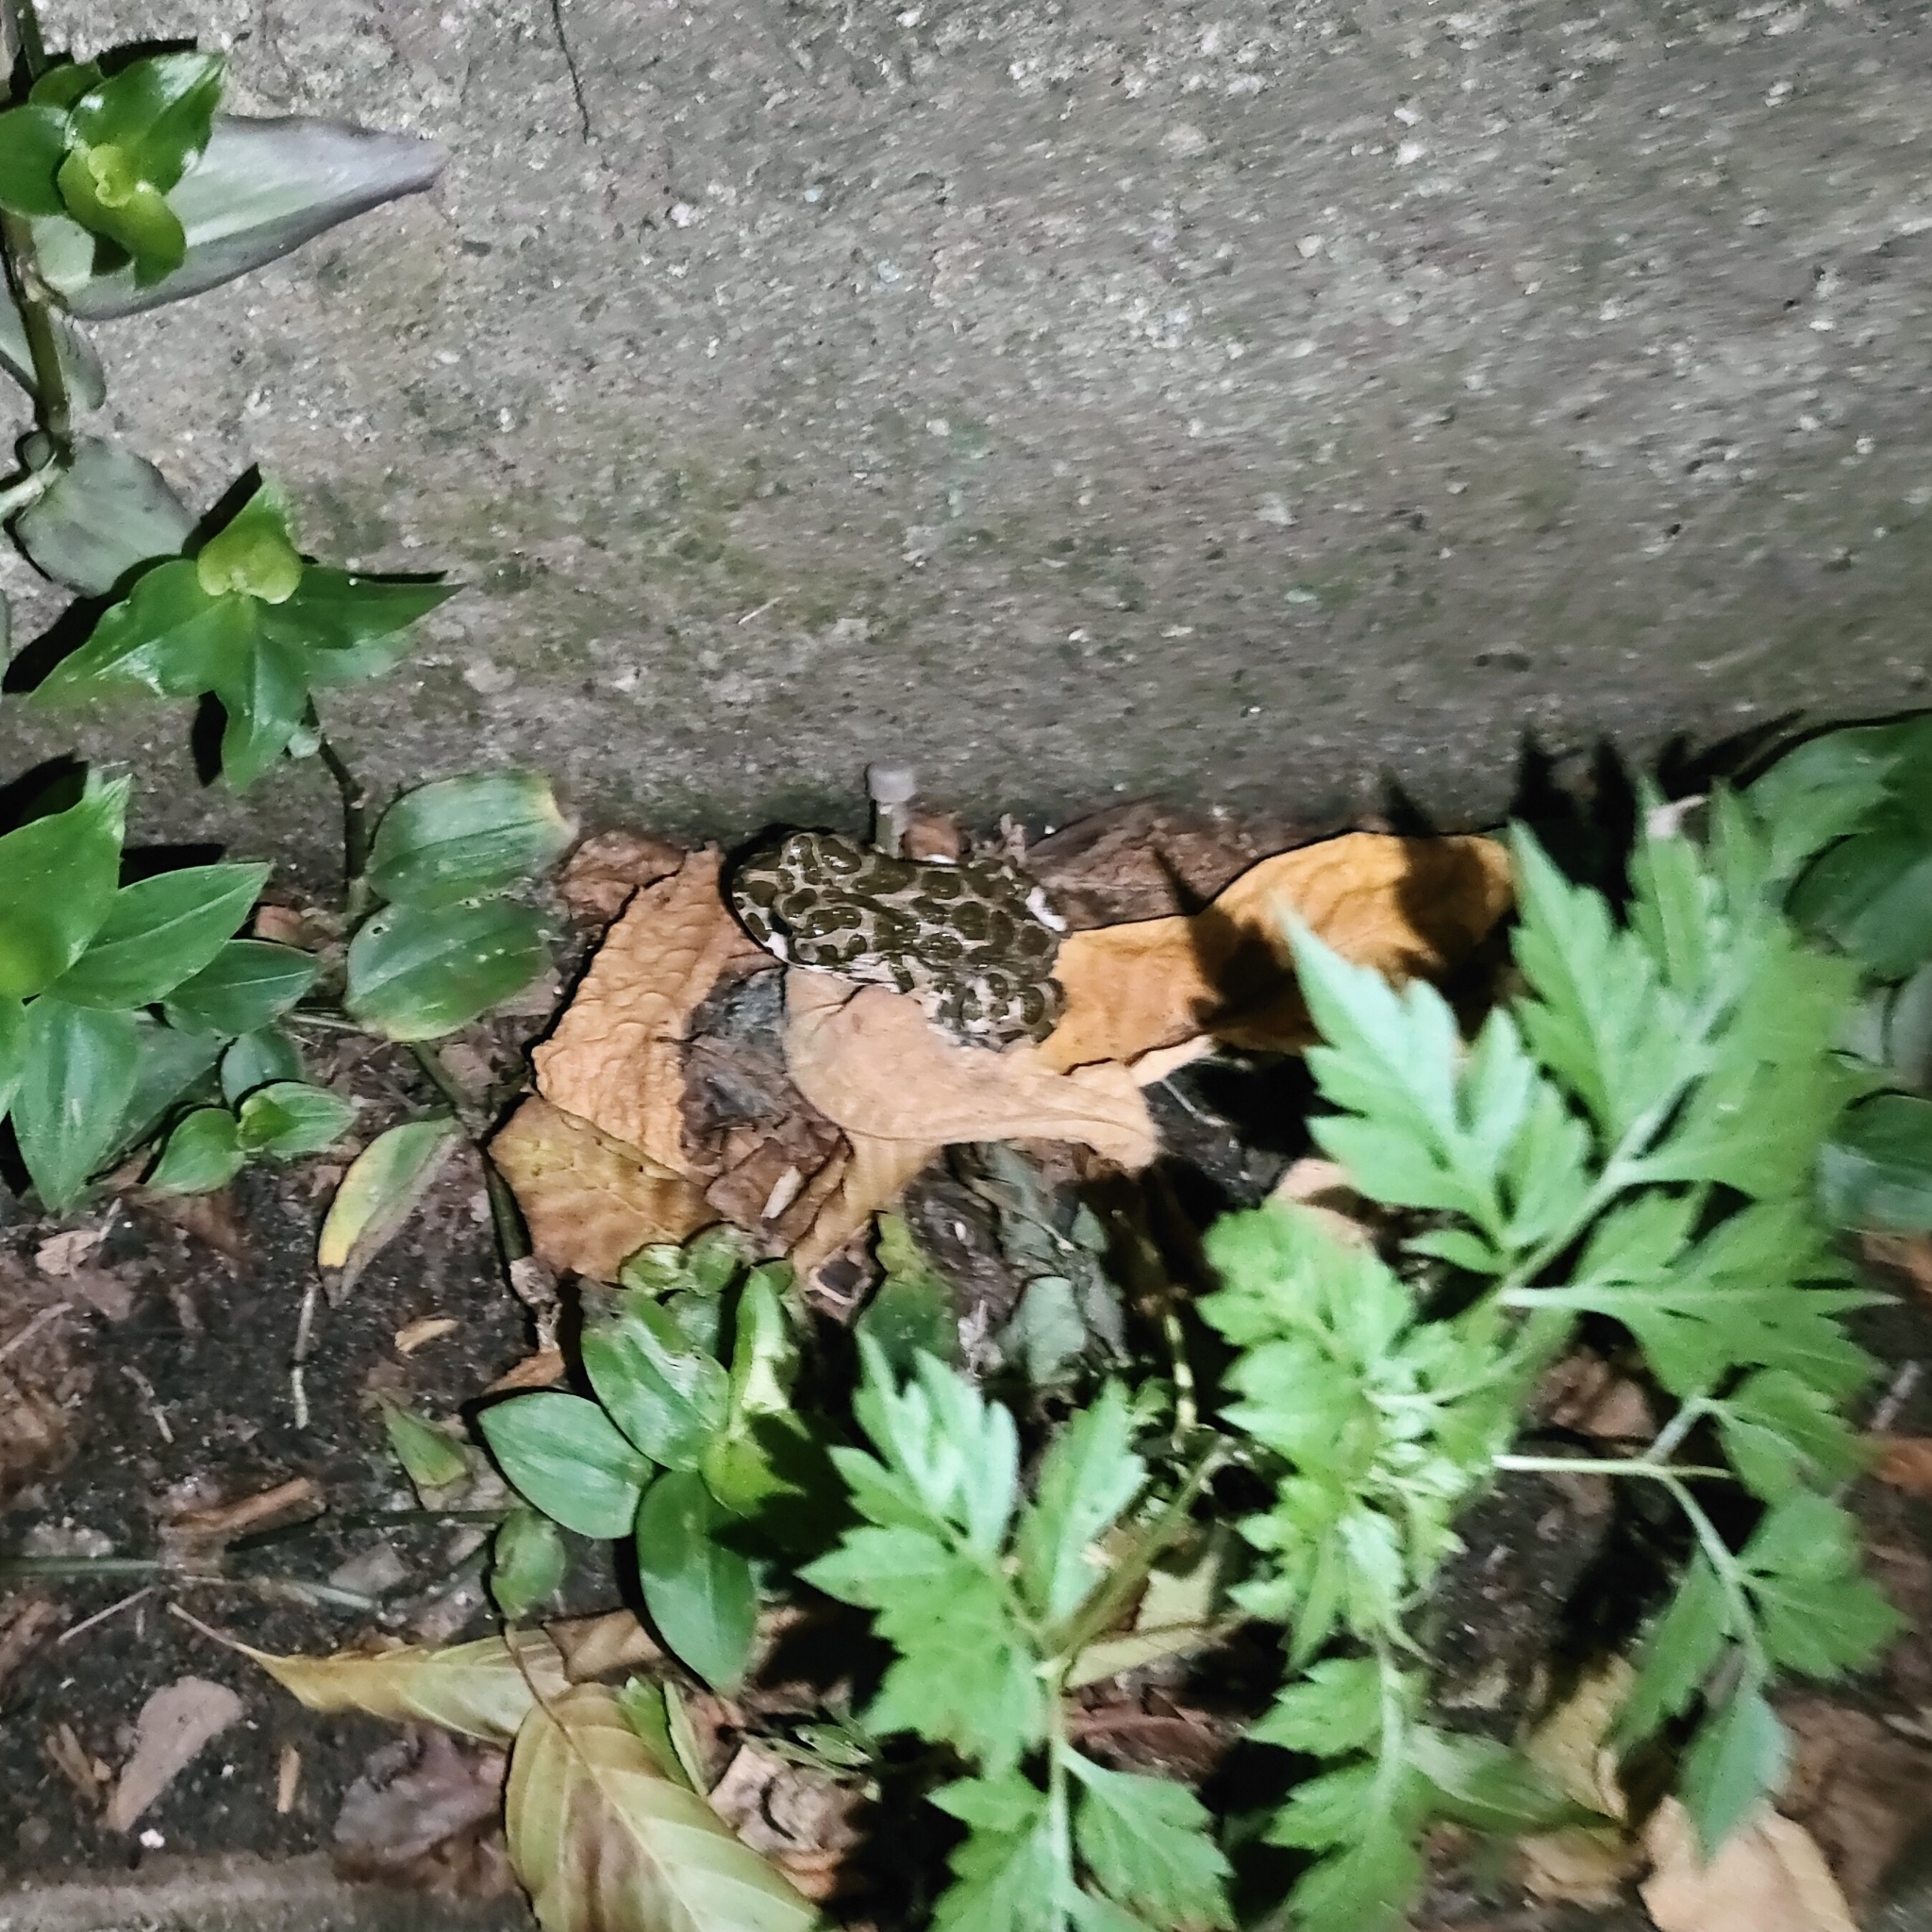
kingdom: Animalia
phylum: Chordata
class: Amphibia
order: Anura
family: Bufonidae
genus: Bufotes
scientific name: Bufotes viridis
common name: European green toad
